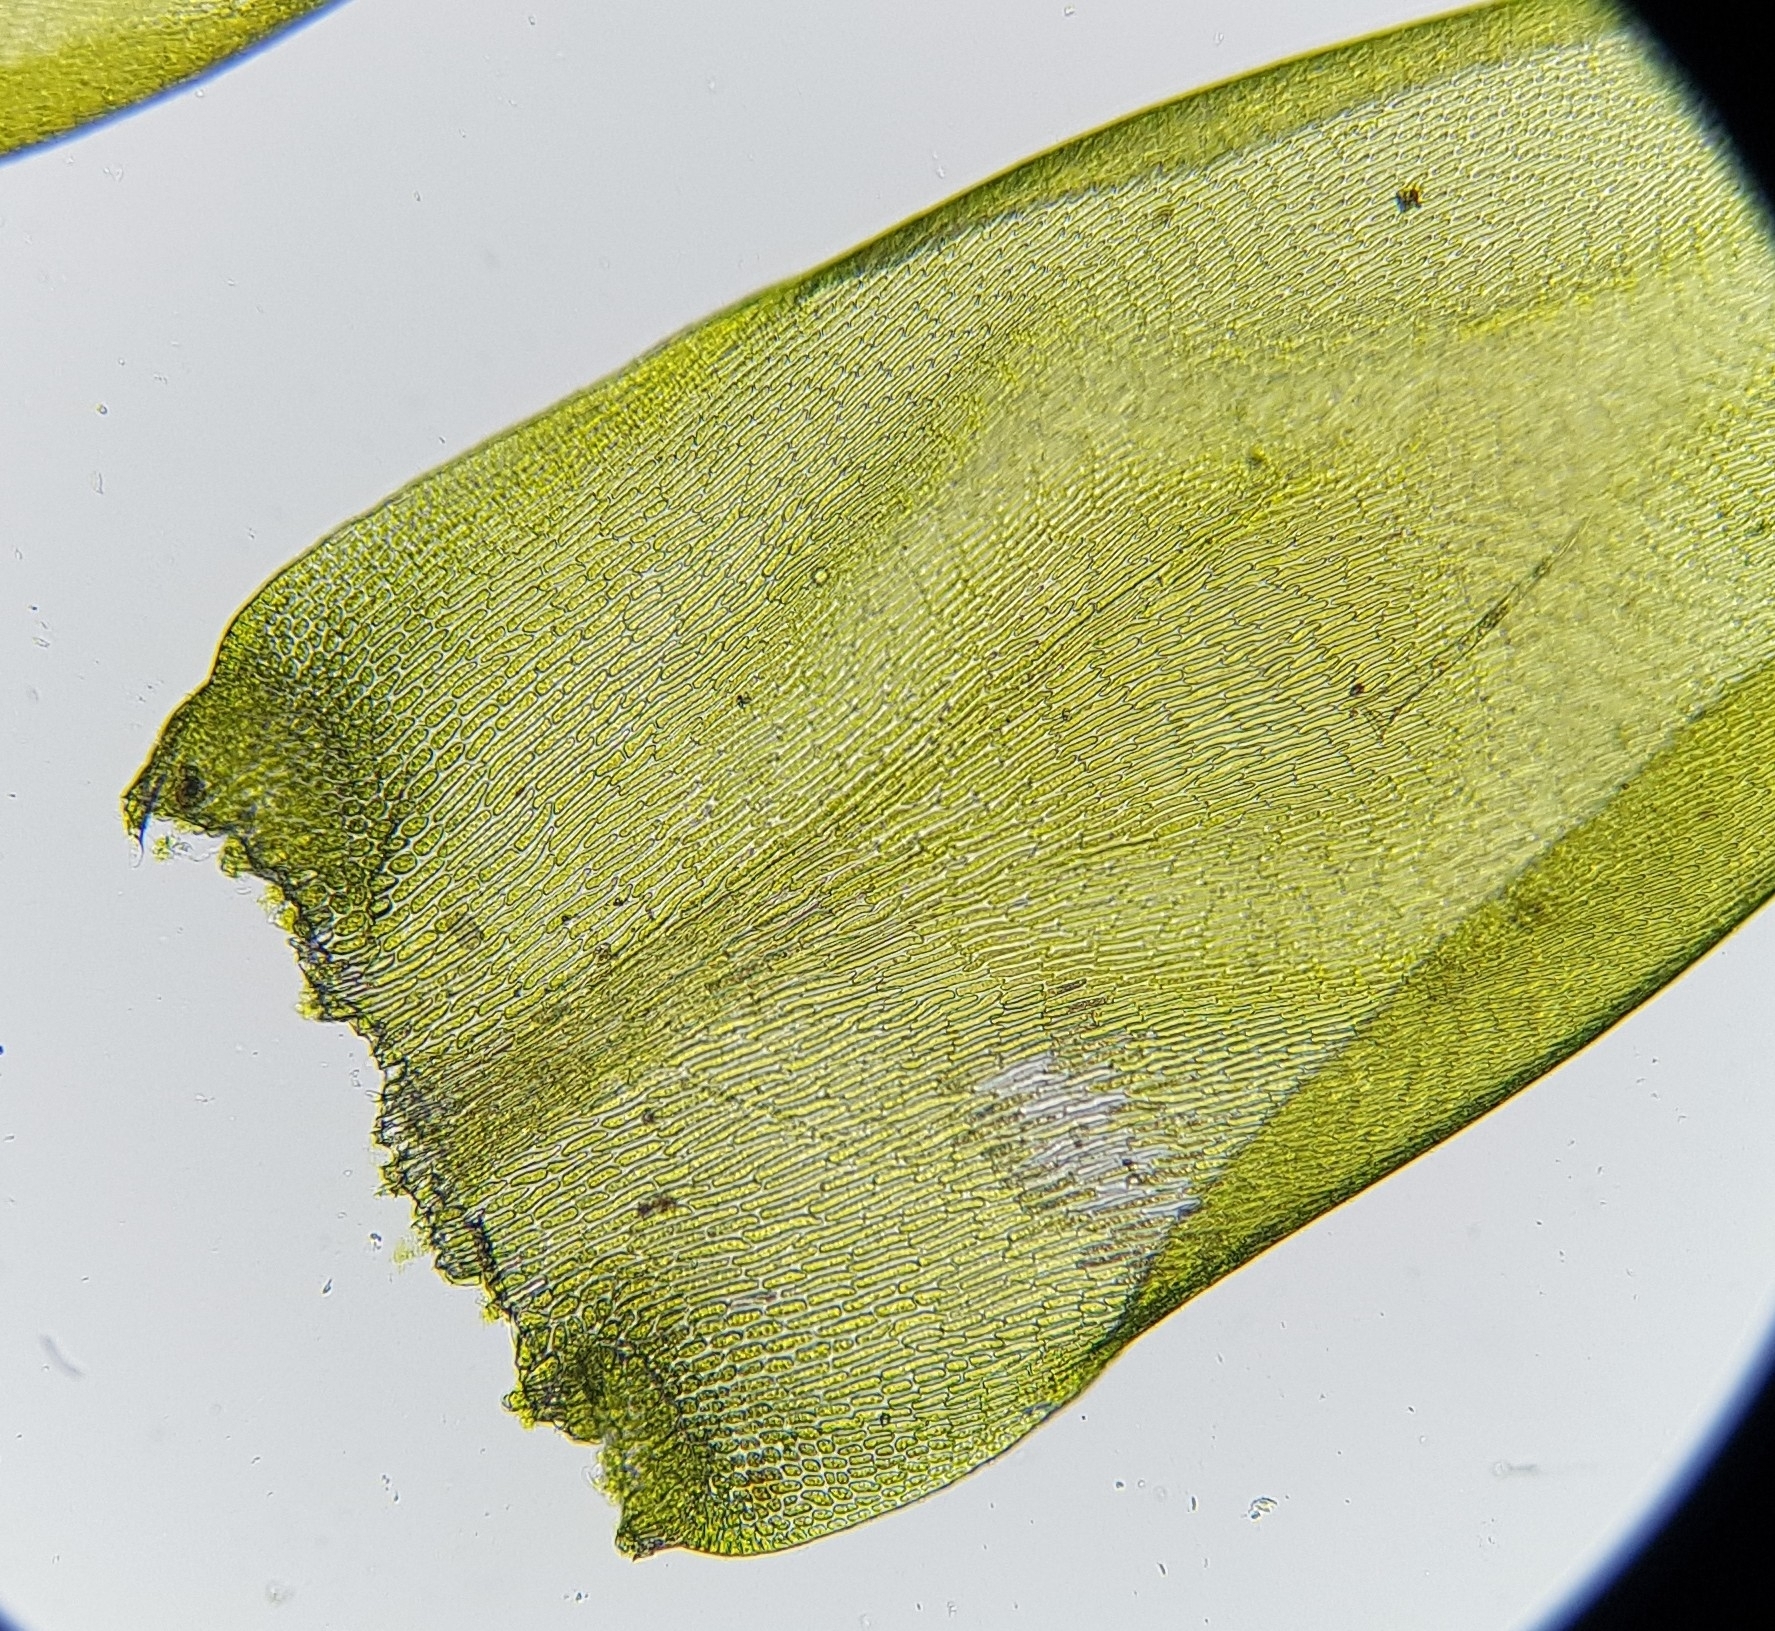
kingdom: Plantae
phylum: Bryophyta
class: Bryopsida
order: Hypnales
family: Lembophyllaceae
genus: Isothecium
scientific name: Isothecium alopecuroides
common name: Larger mouse-tail moss
